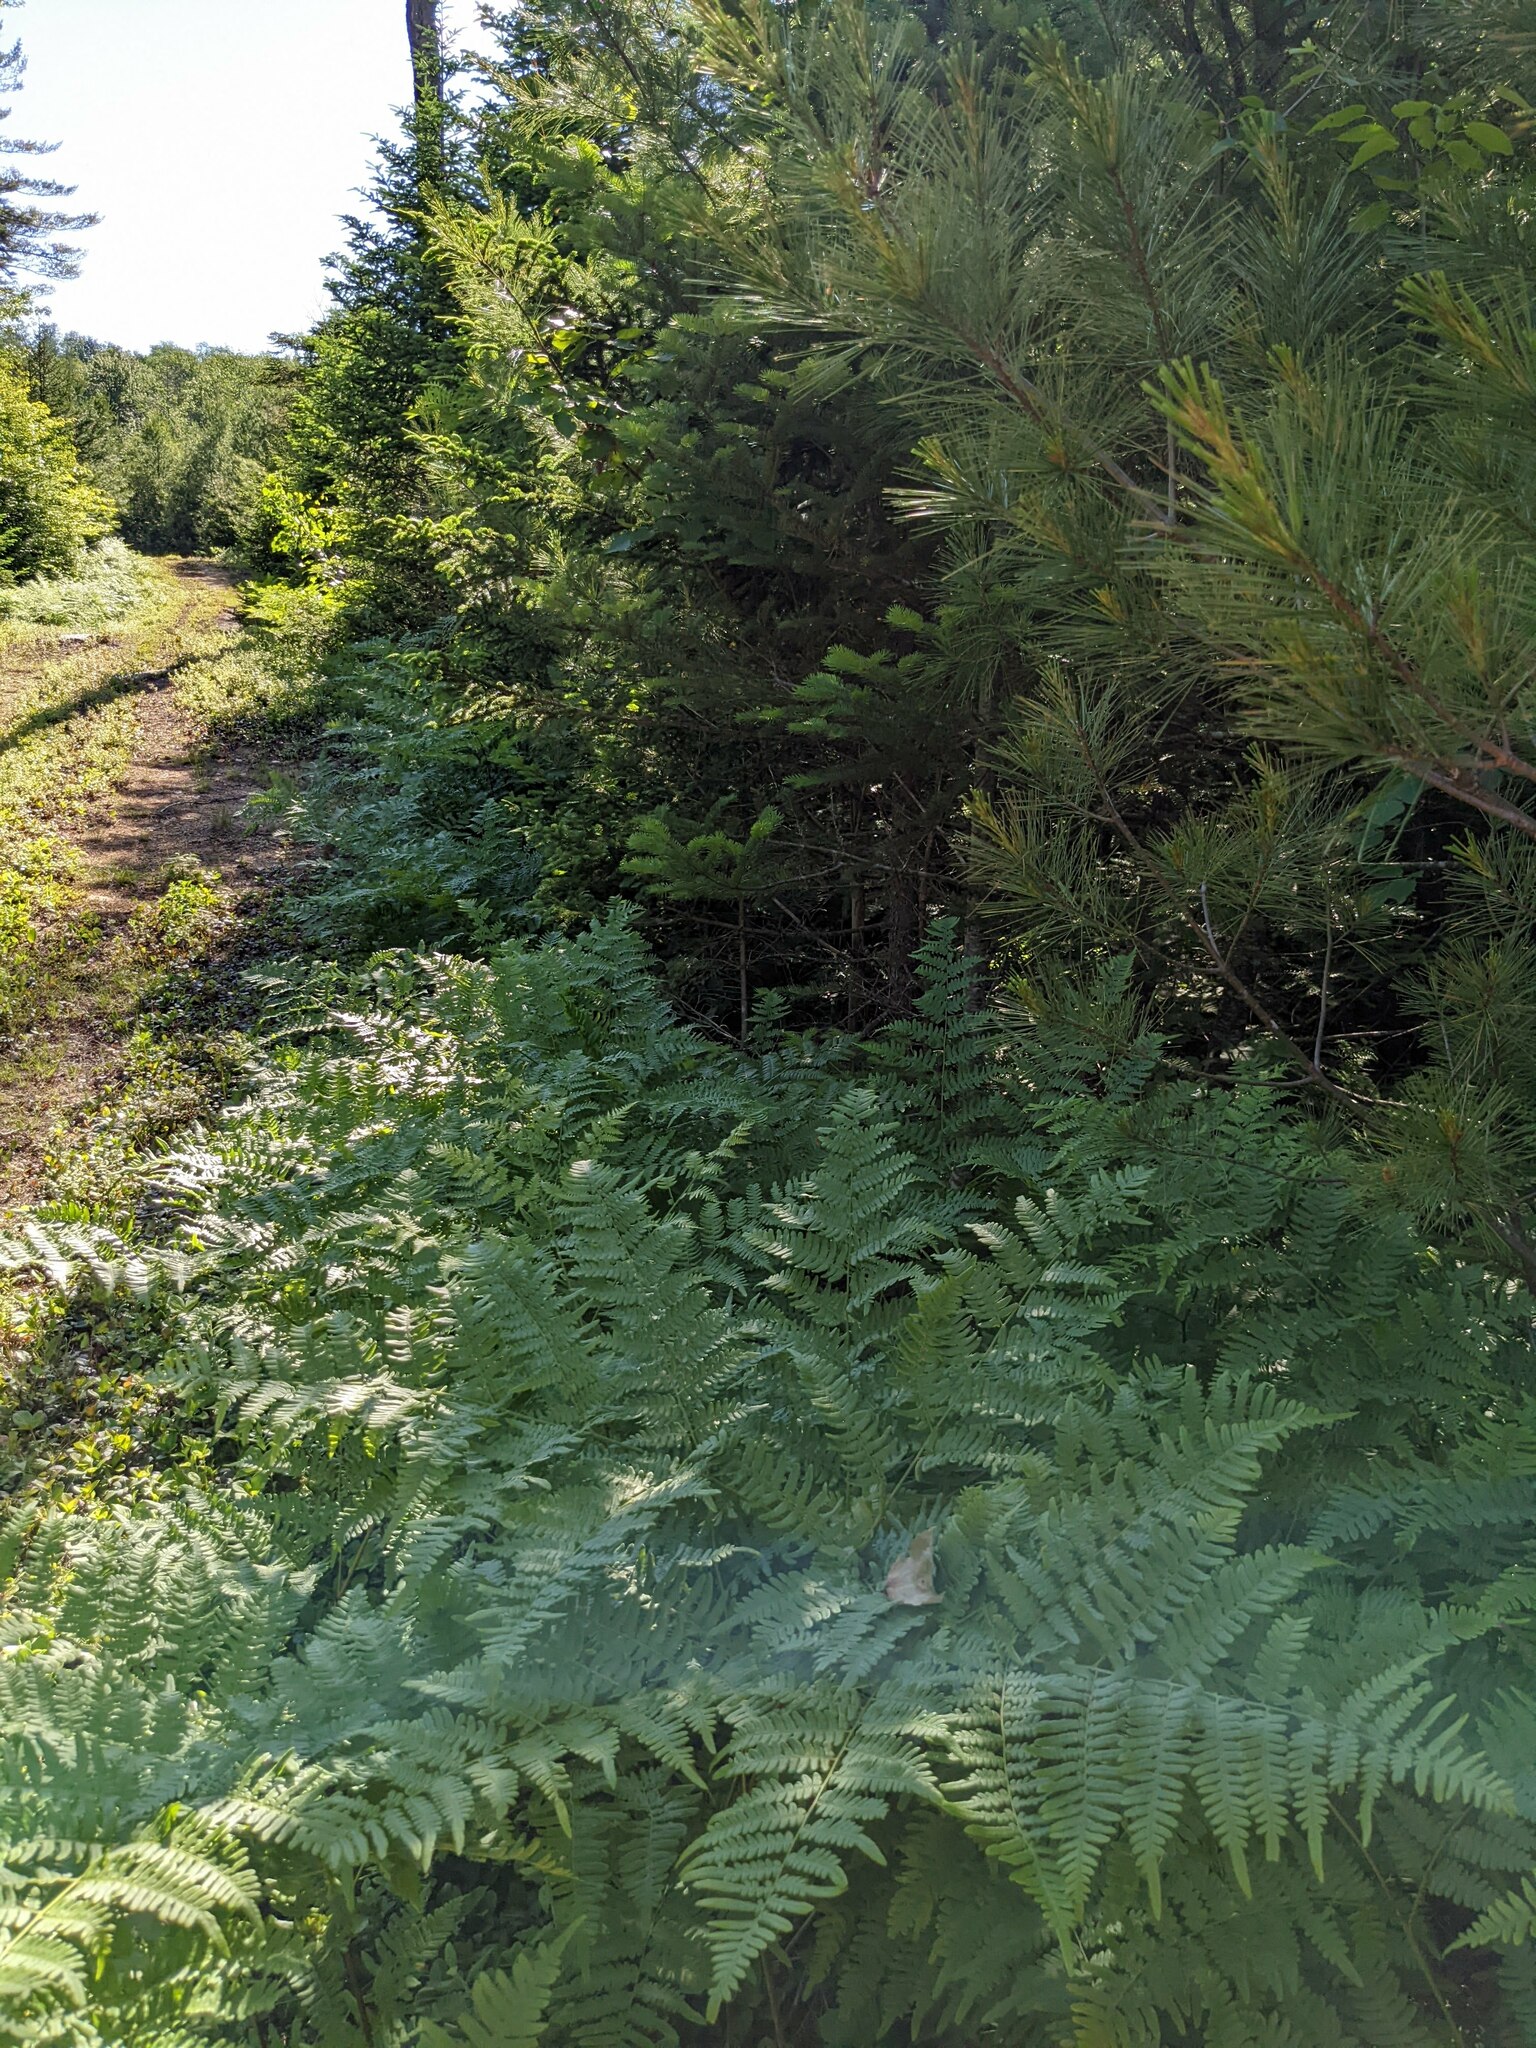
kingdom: Plantae
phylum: Tracheophyta
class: Polypodiopsida
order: Polypodiales
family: Dennstaedtiaceae
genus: Pteridium
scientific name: Pteridium aquilinum
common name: Bracken
